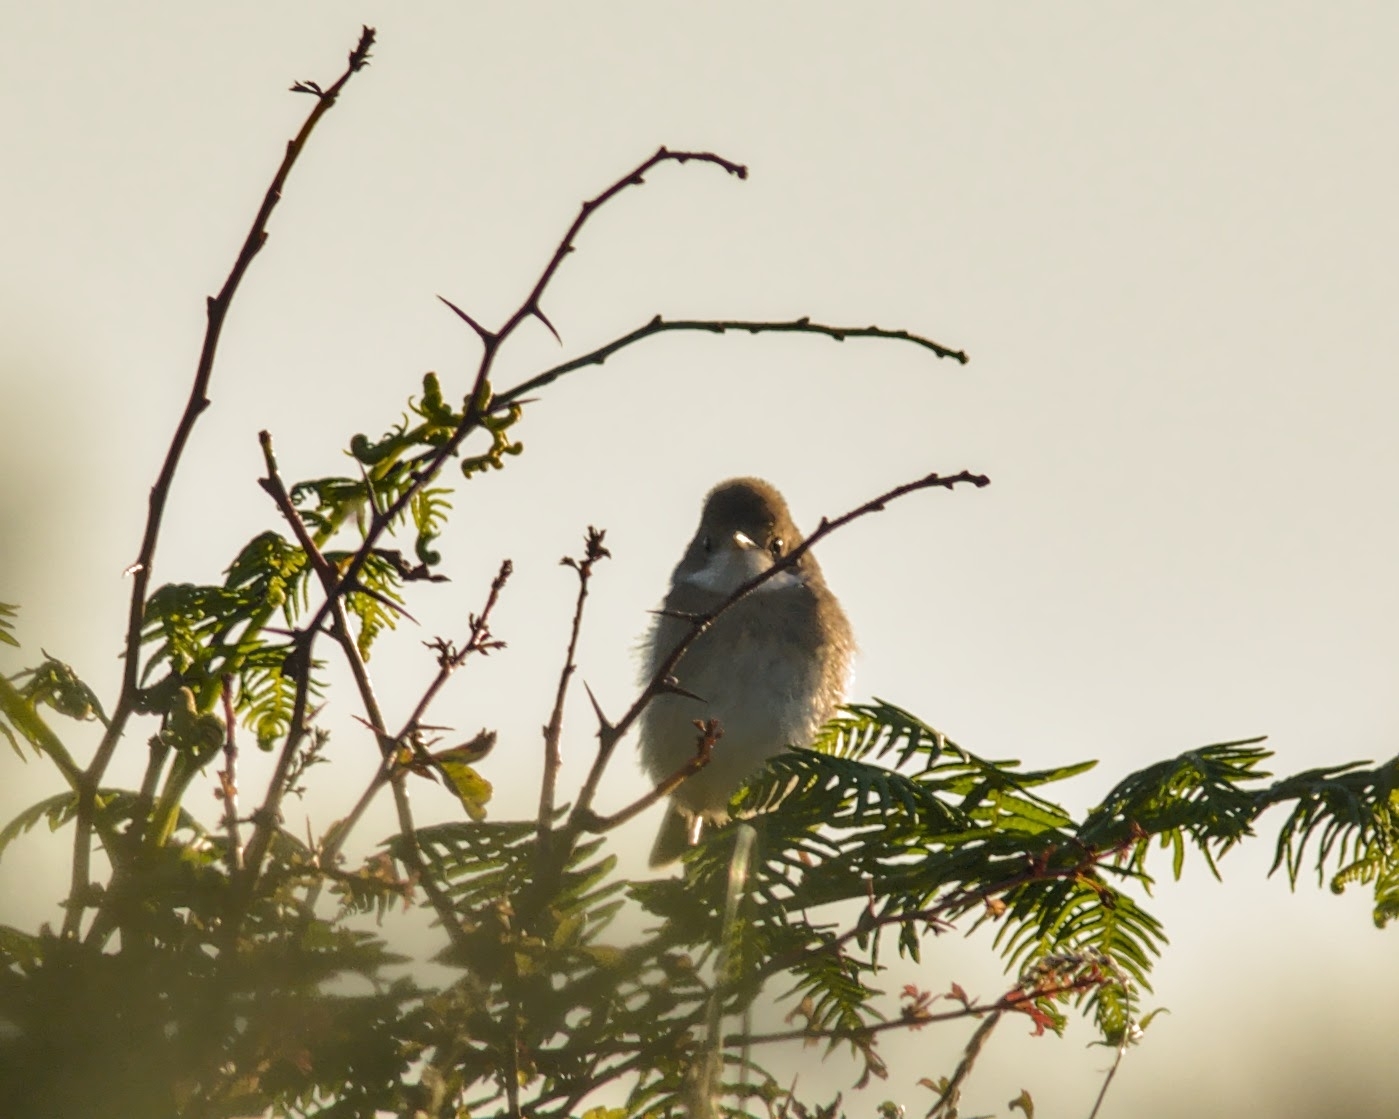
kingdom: Animalia
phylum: Chordata
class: Aves
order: Passeriformes
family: Sylviidae
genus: Sylvia
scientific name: Sylvia communis
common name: Common whitethroat
